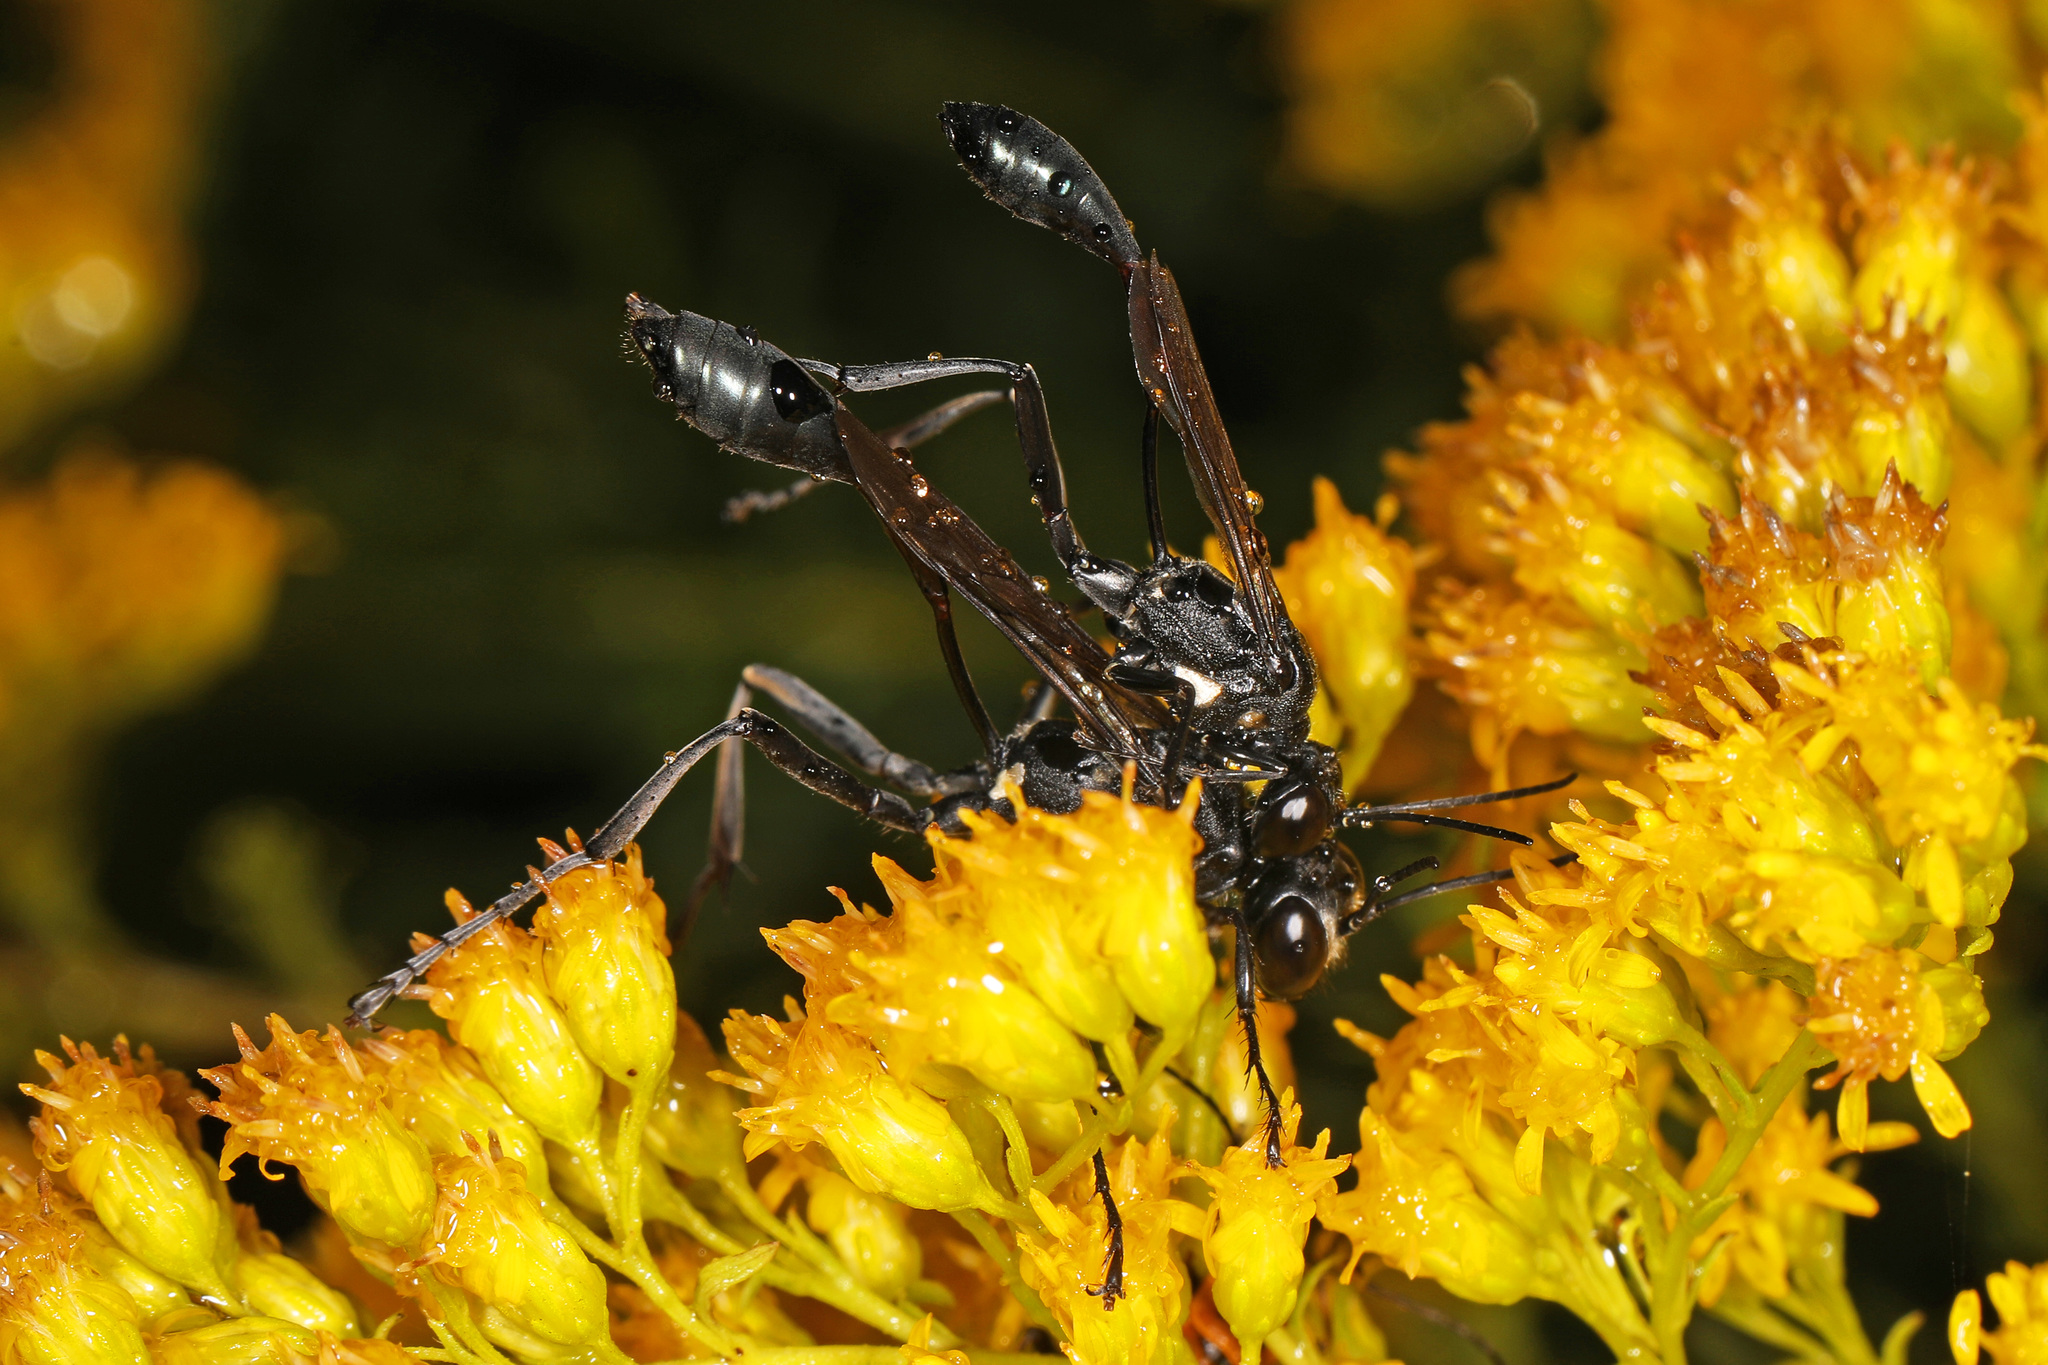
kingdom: Animalia
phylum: Arthropoda
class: Insecta
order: Hymenoptera
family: Sphecidae
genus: Eremnophila
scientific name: Eremnophila aureonotata
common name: Gold-marked thread-waisted wasp
